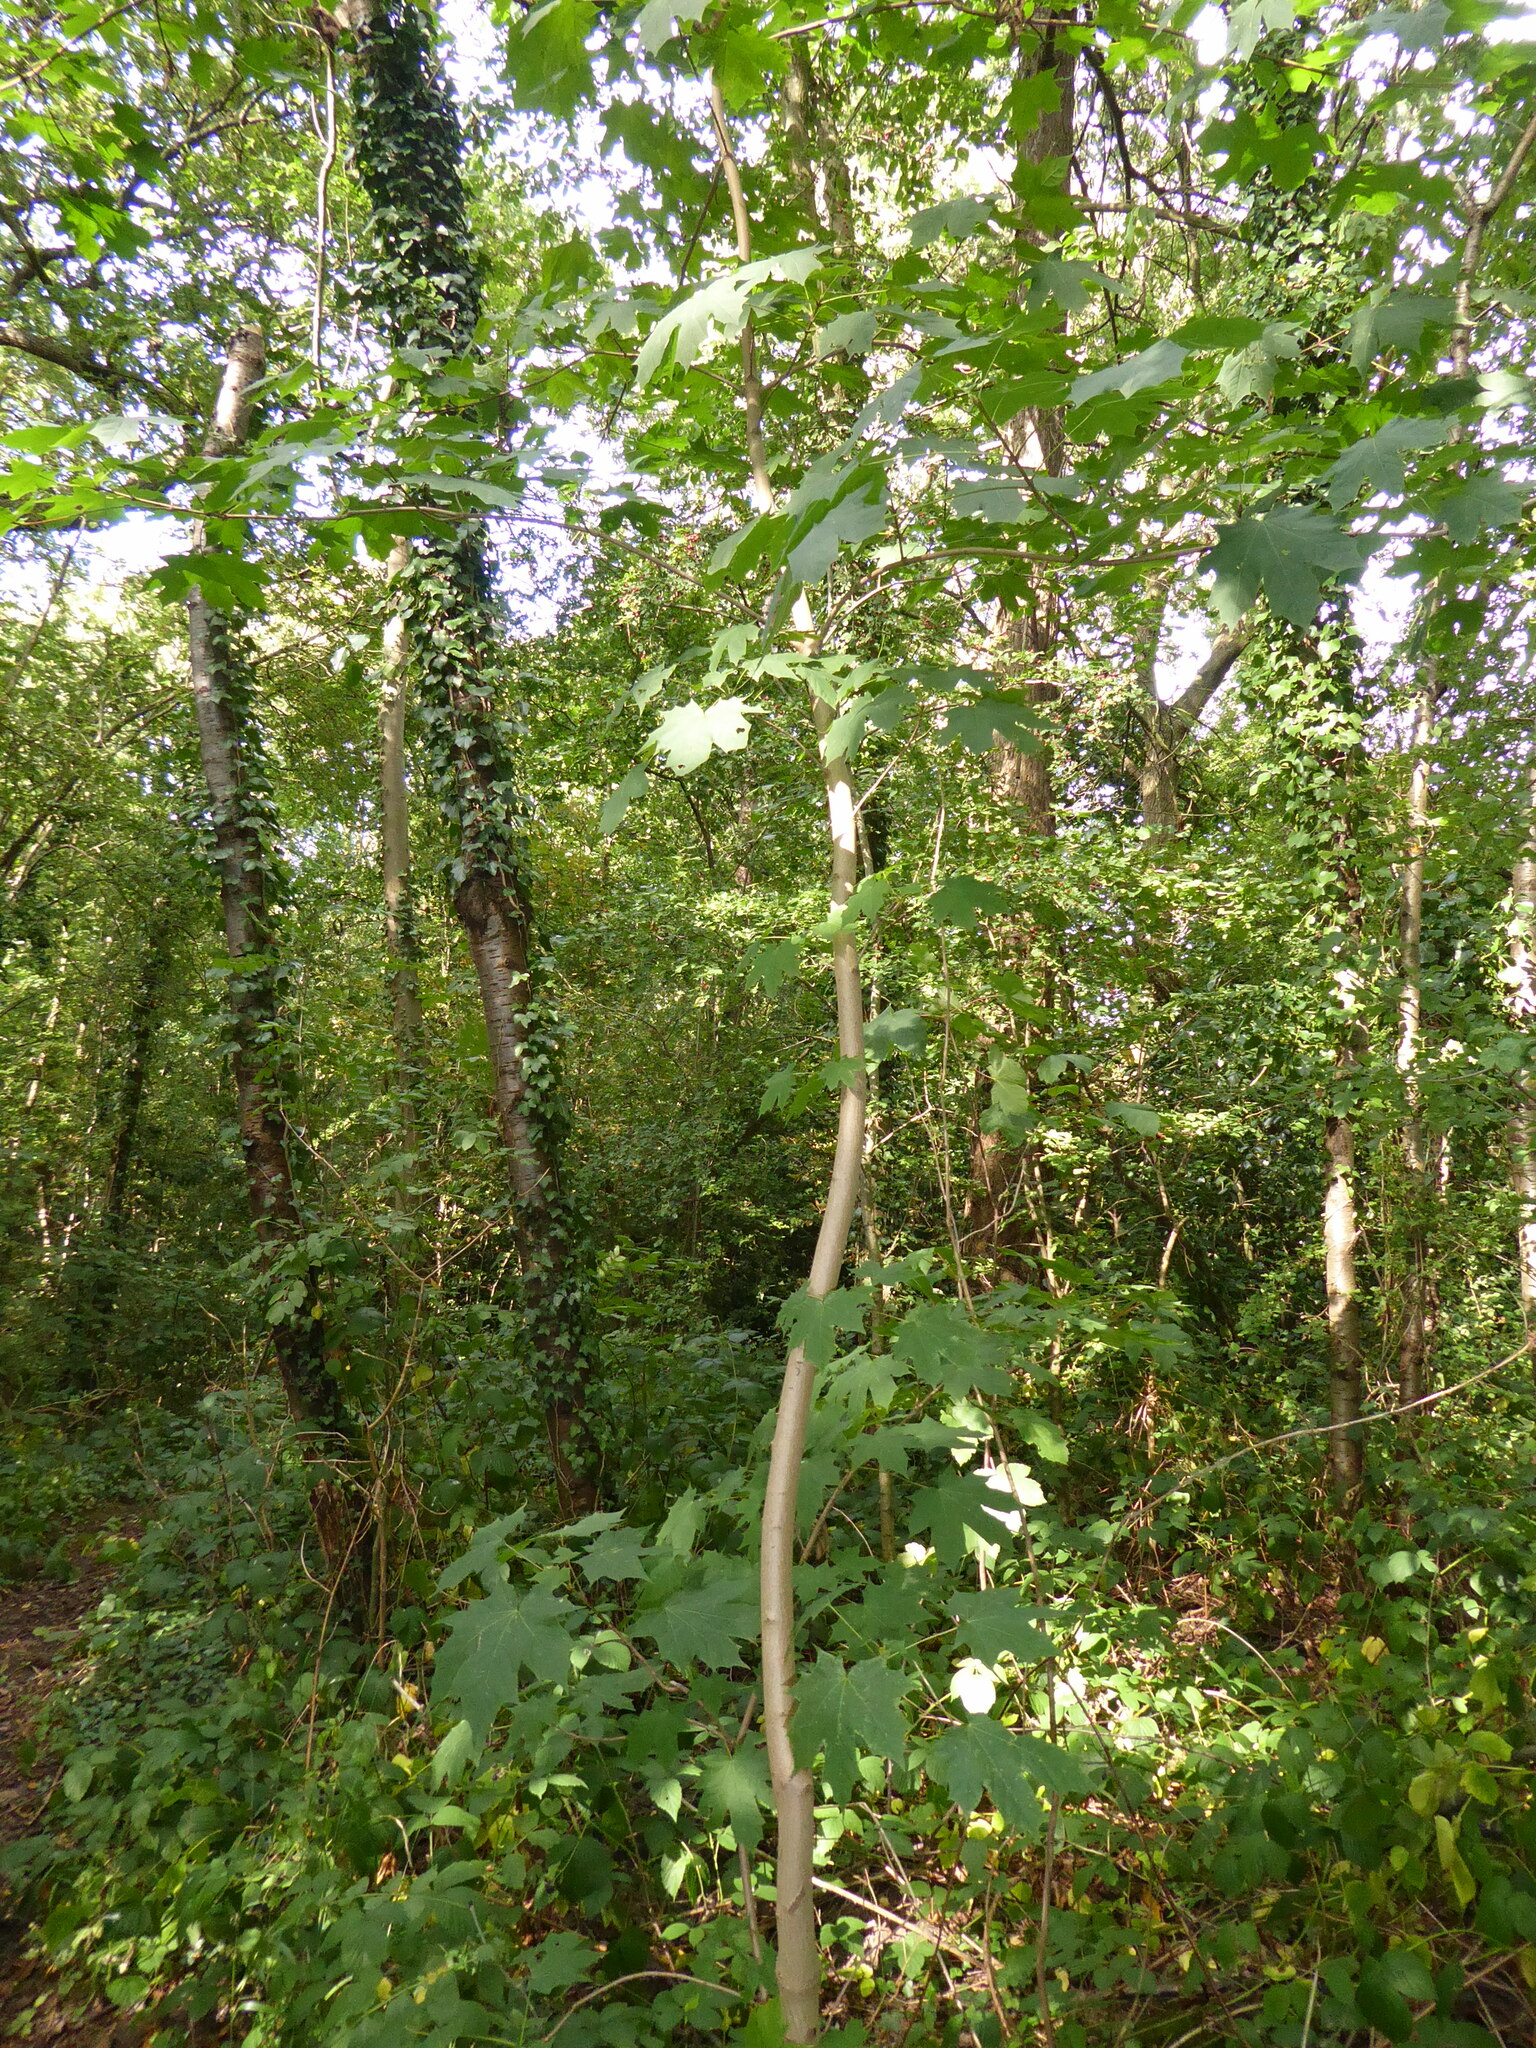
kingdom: Plantae
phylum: Tracheophyta
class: Magnoliopsida
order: Sapindales
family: Sapindaceae
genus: Acer
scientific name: Acer platanoides
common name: Norway maple
